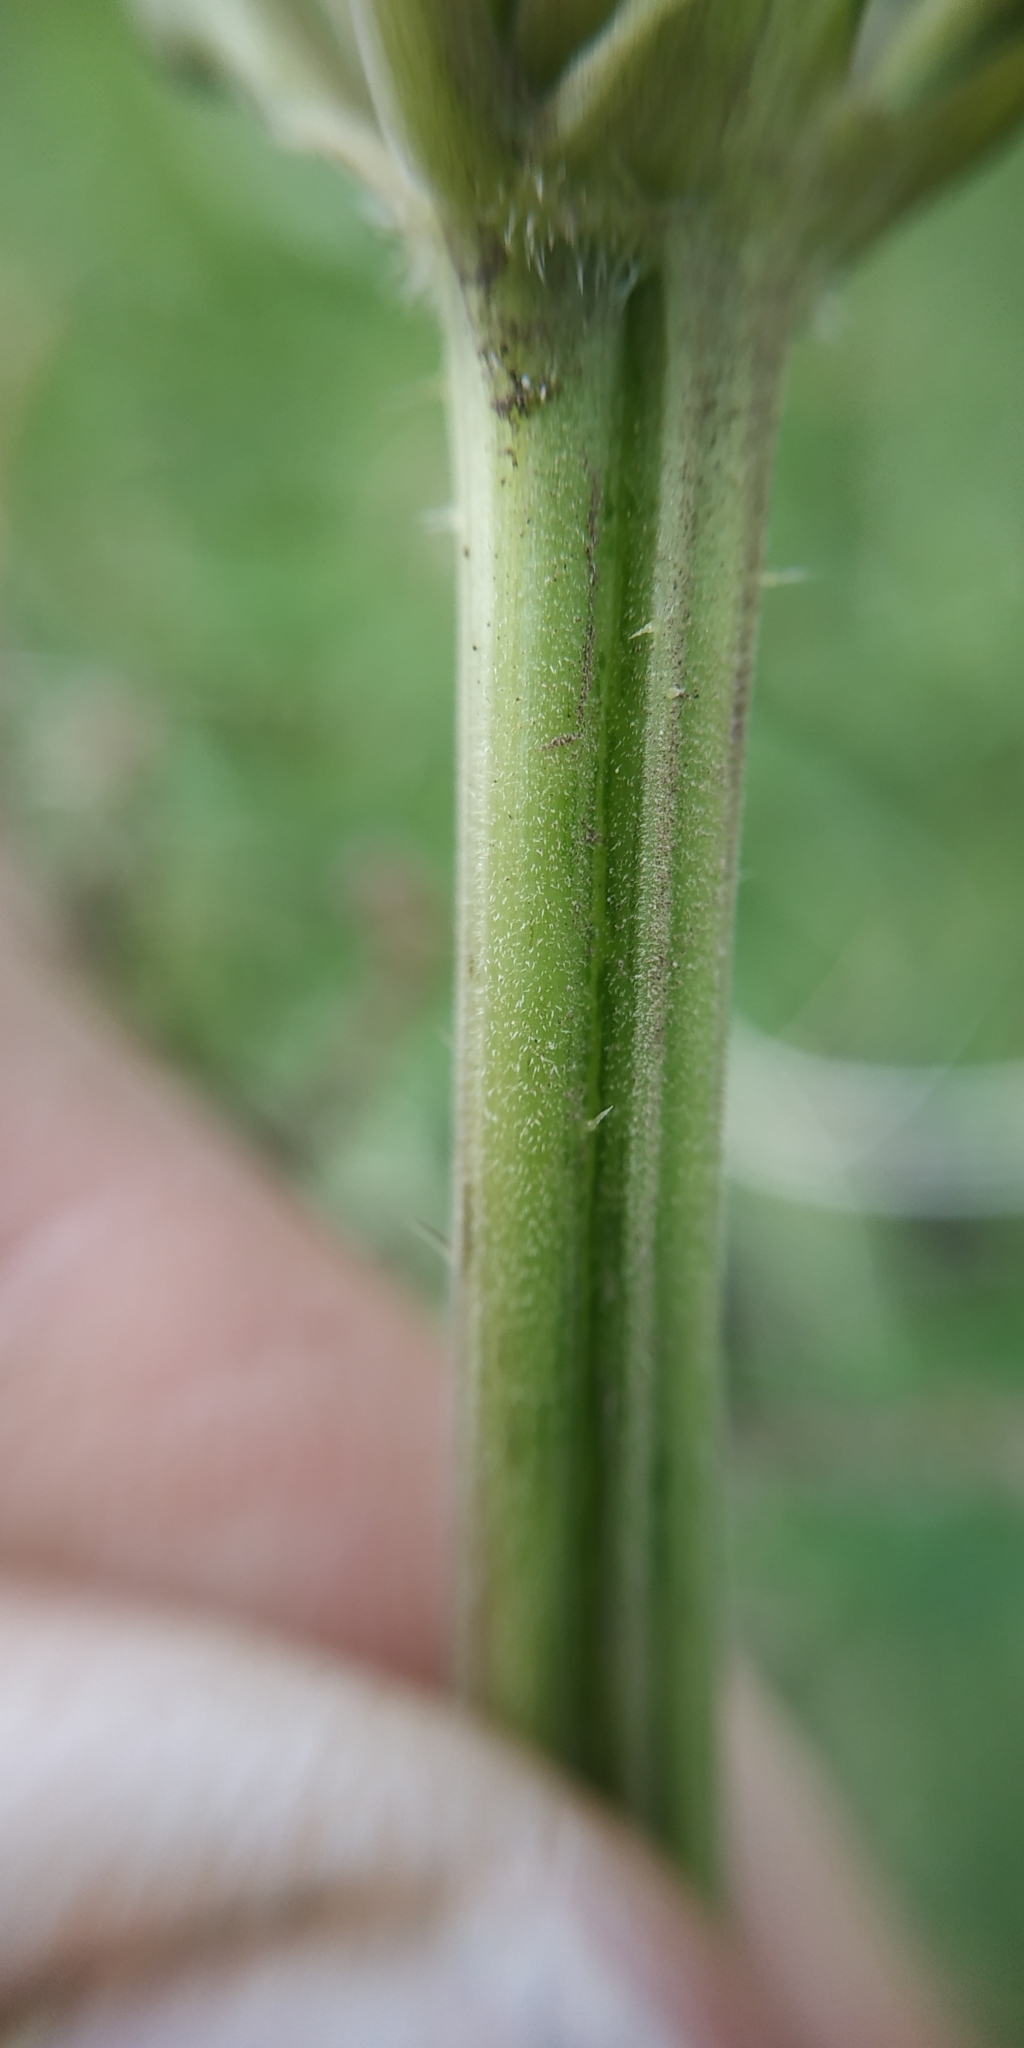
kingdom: Plantae
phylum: Tracheophyta
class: Magnoliopsida
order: Rosales
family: Urticaceae
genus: Urtica
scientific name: Urtica galeopsifolia
